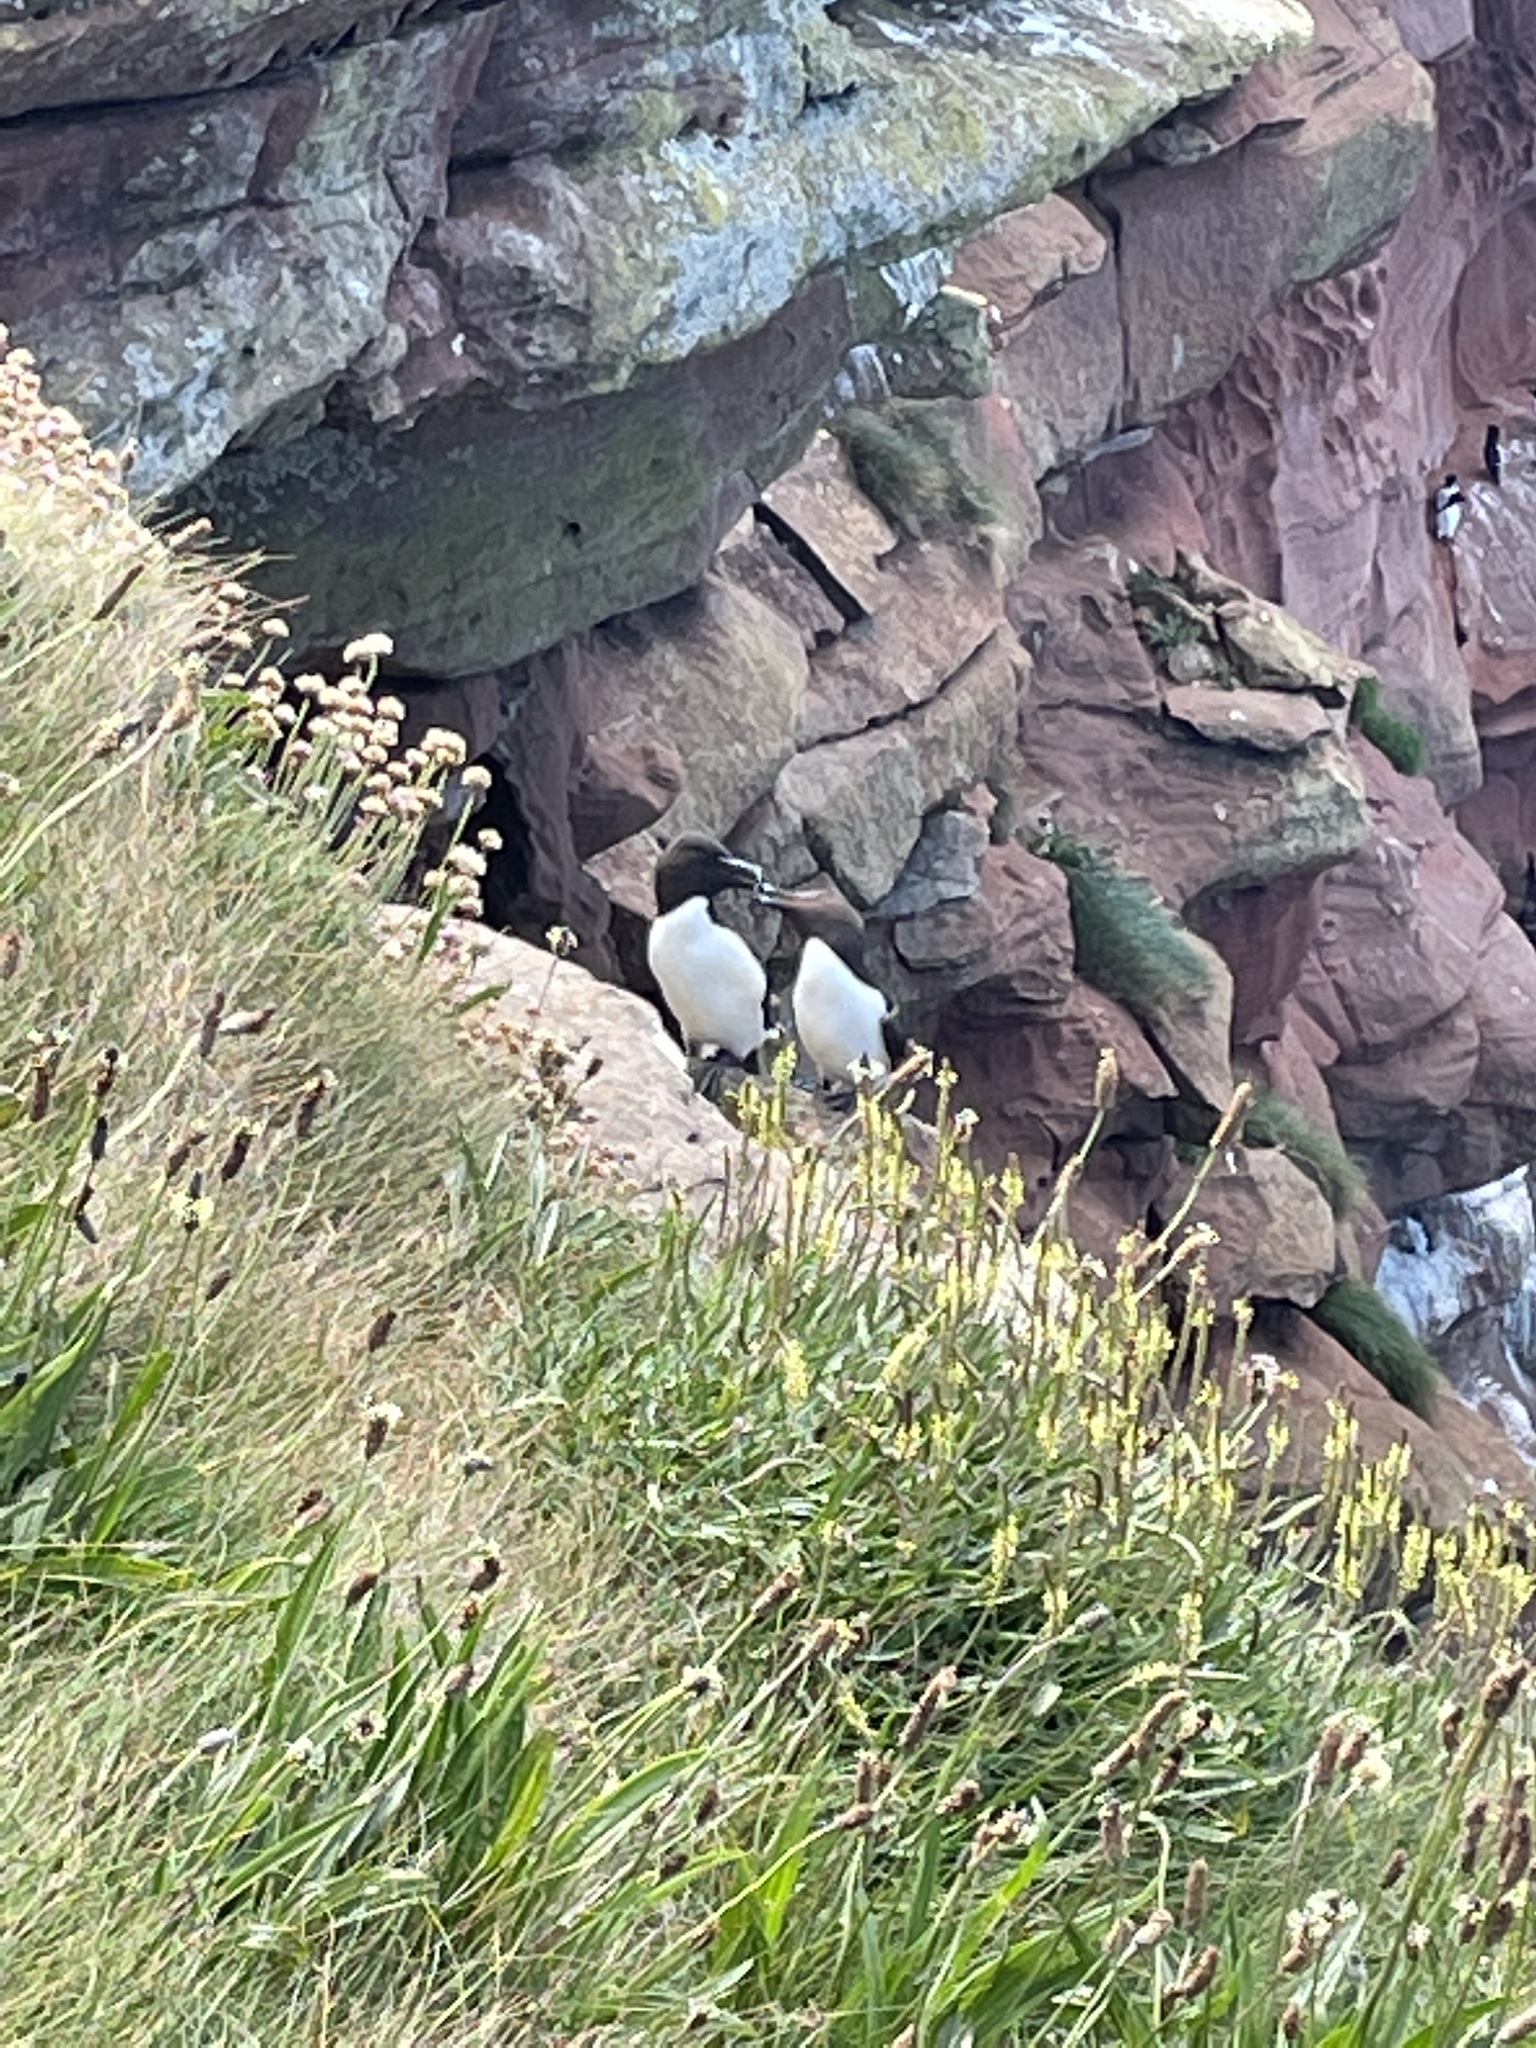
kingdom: Animalia
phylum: Chordata
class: Aves
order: Charadriiformes
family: Alcidae
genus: Alca
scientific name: Alca torda
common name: Razorbill
